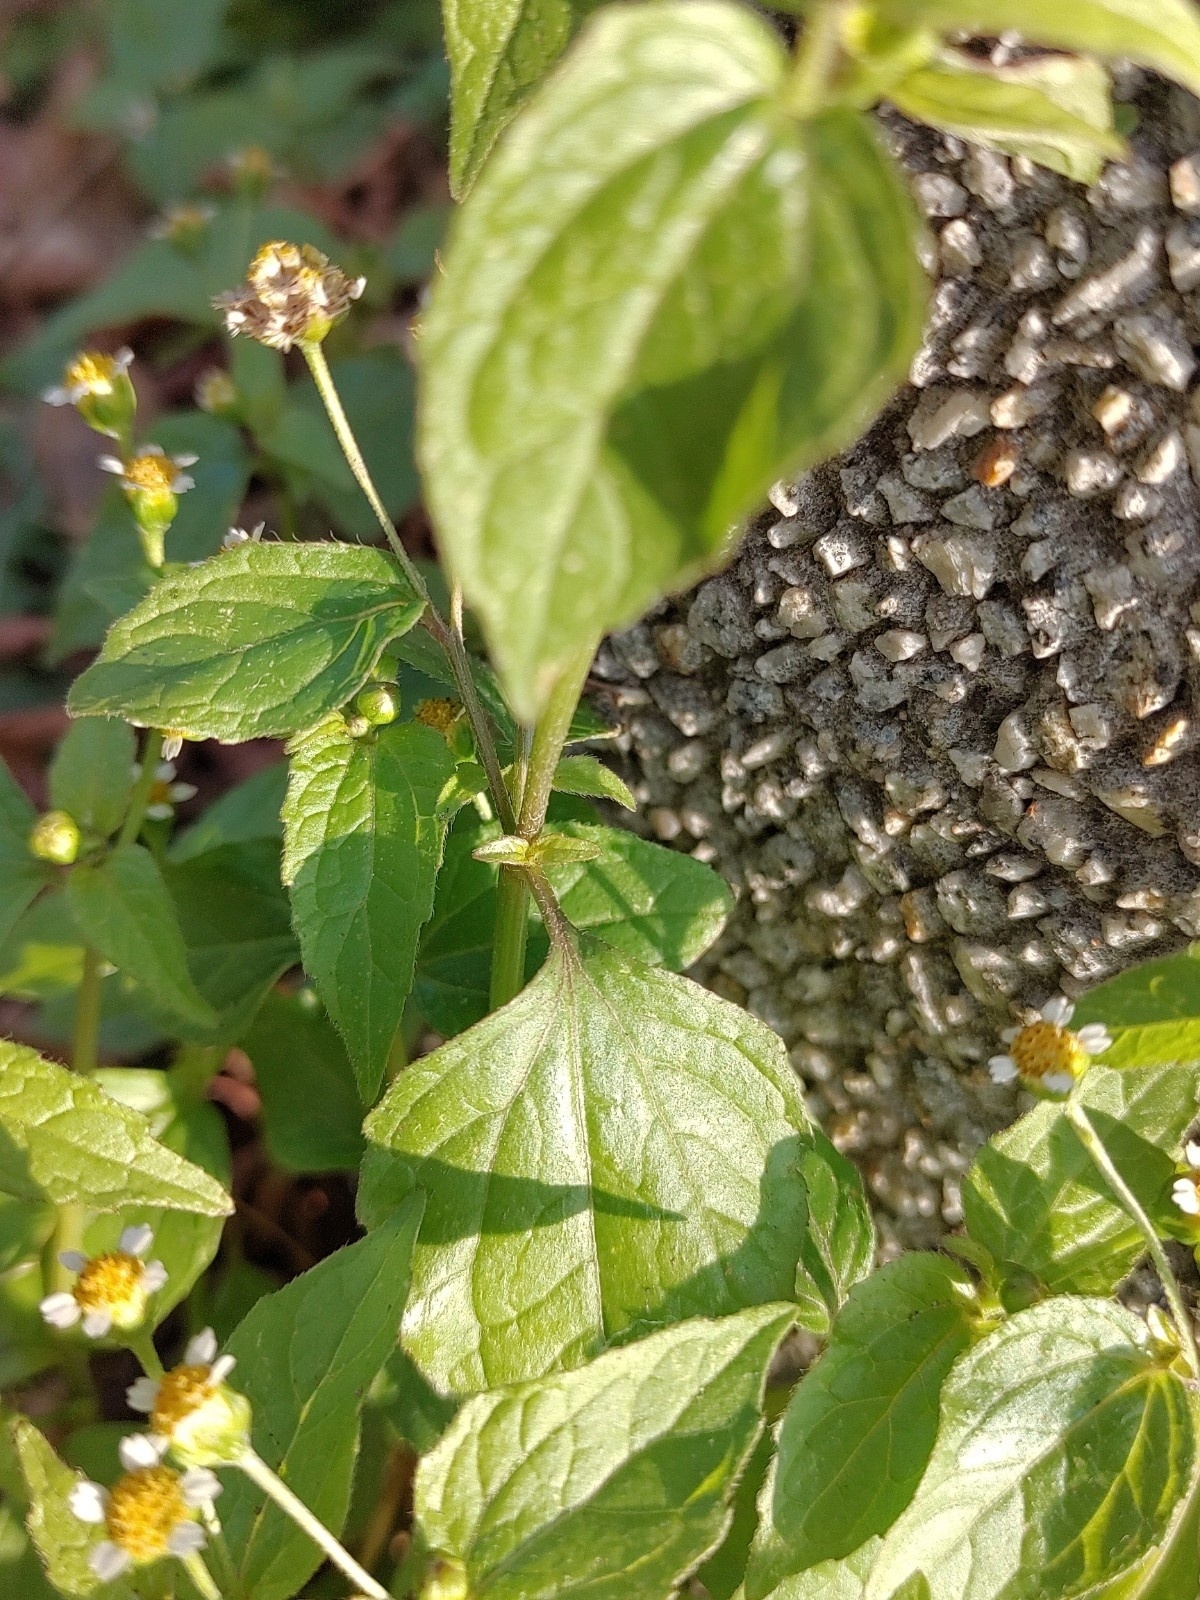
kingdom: Plantae
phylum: Tracheophyta
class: Magnoliopsida
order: Asterales
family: Asteraceae
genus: Galinsoga
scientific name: Galinsoga parviflora
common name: Gallant soldier
